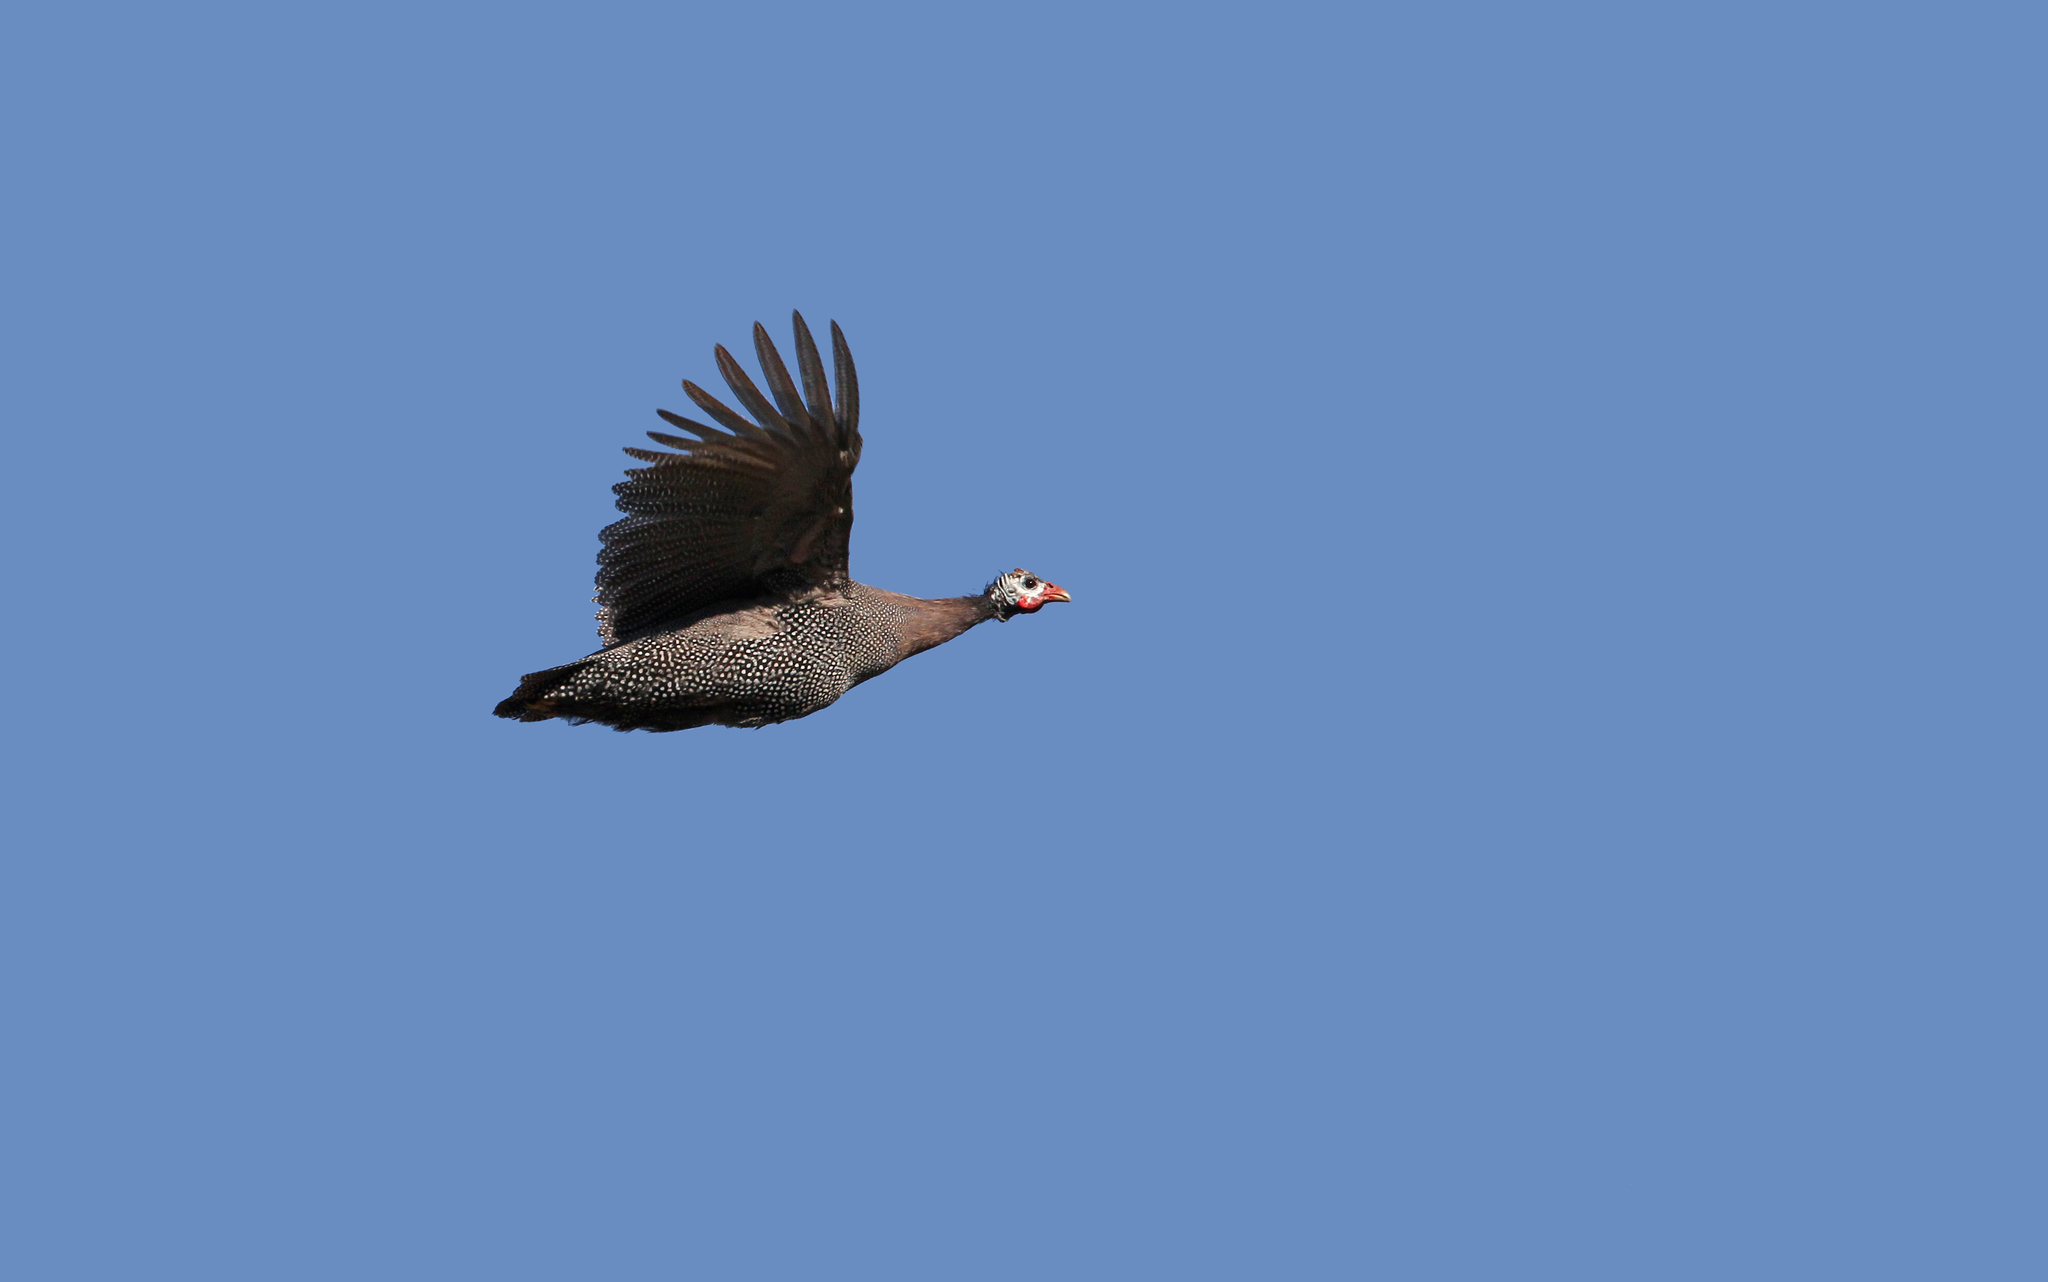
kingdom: Animalia
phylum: Chordata
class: Aves
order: Galliformes
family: Numididae
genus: Numida
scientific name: Numida meleagris
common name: Helmeted guineafowl
